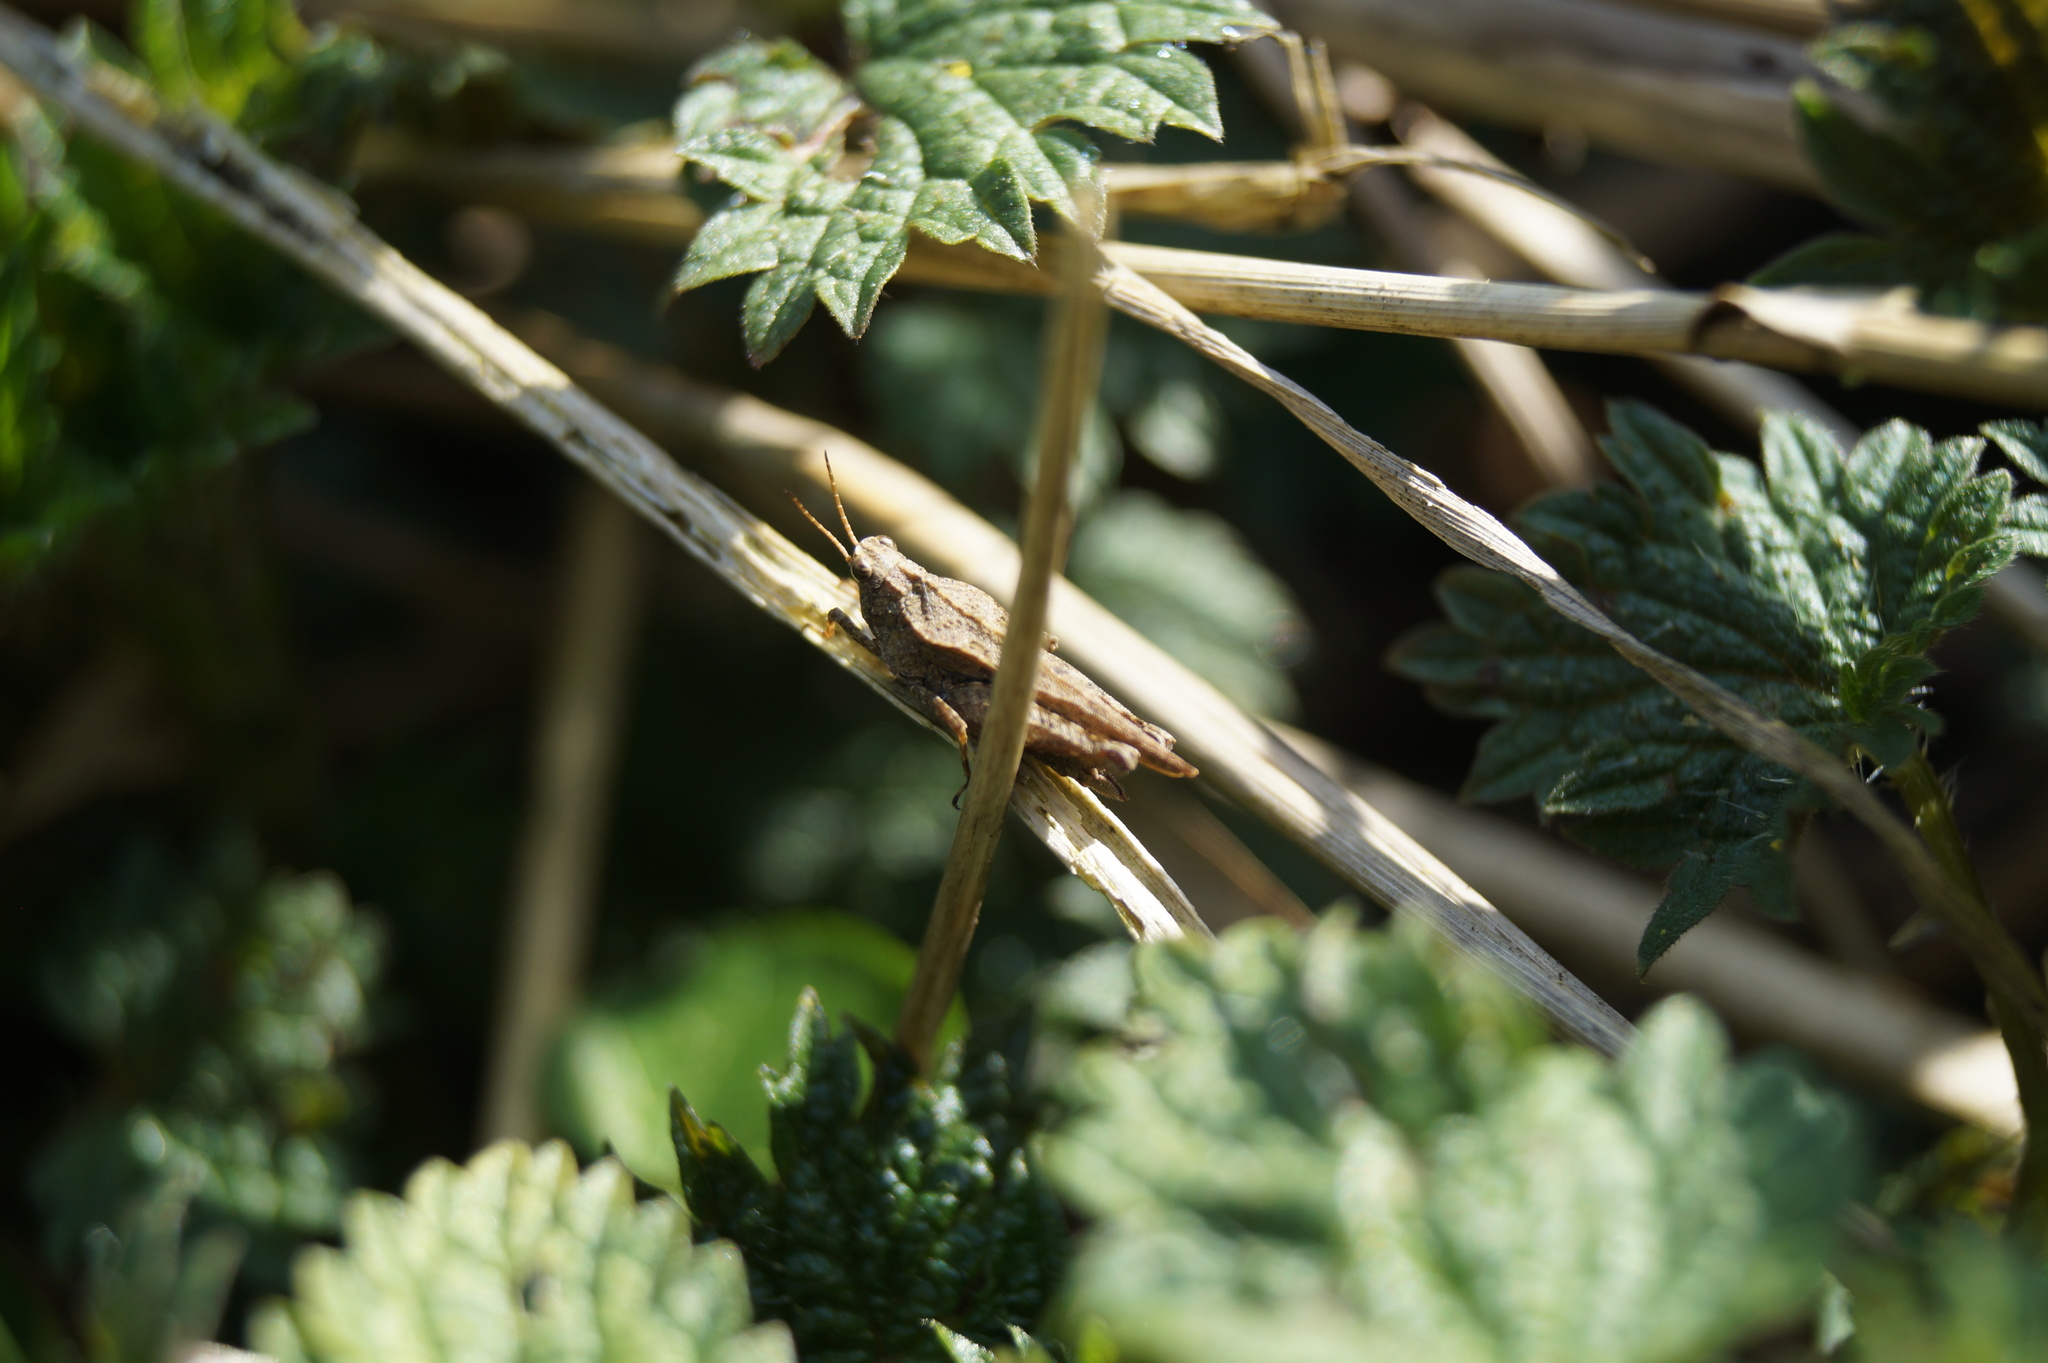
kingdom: Animalia
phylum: Arthropoda
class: Insecta
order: Orthoptera
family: Tetrigidae
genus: Tetrix
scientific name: Tetrix subulata
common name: Slender ground-hopper
